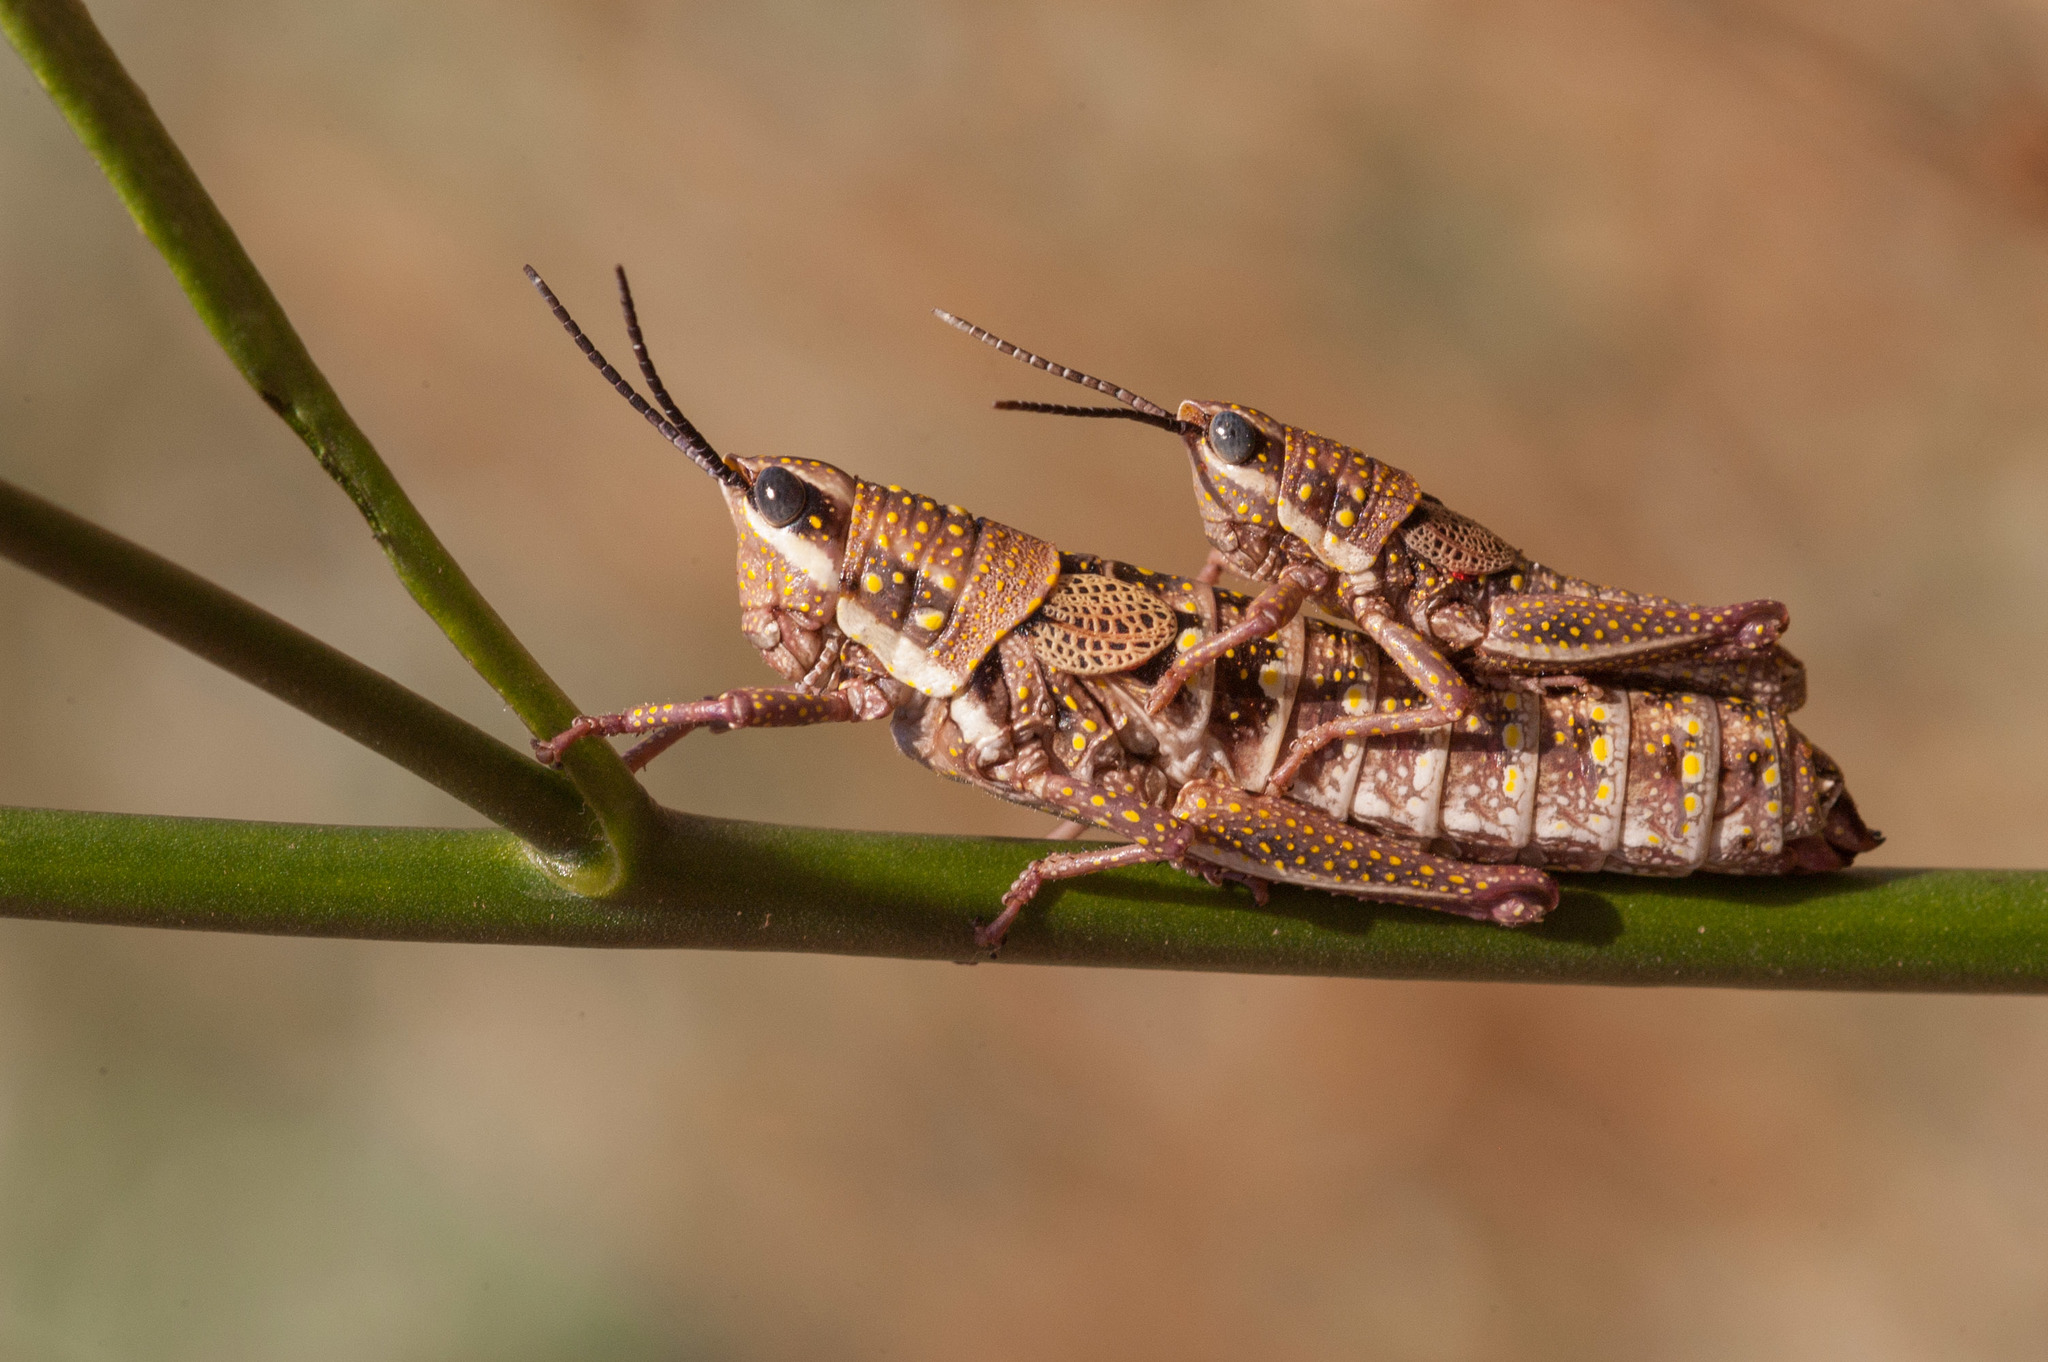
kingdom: Animalia
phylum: Arthropoda
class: Insecta
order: Orthoptera
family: Pyrgomorphidae
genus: Monistria
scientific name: Monistria pustulifera
